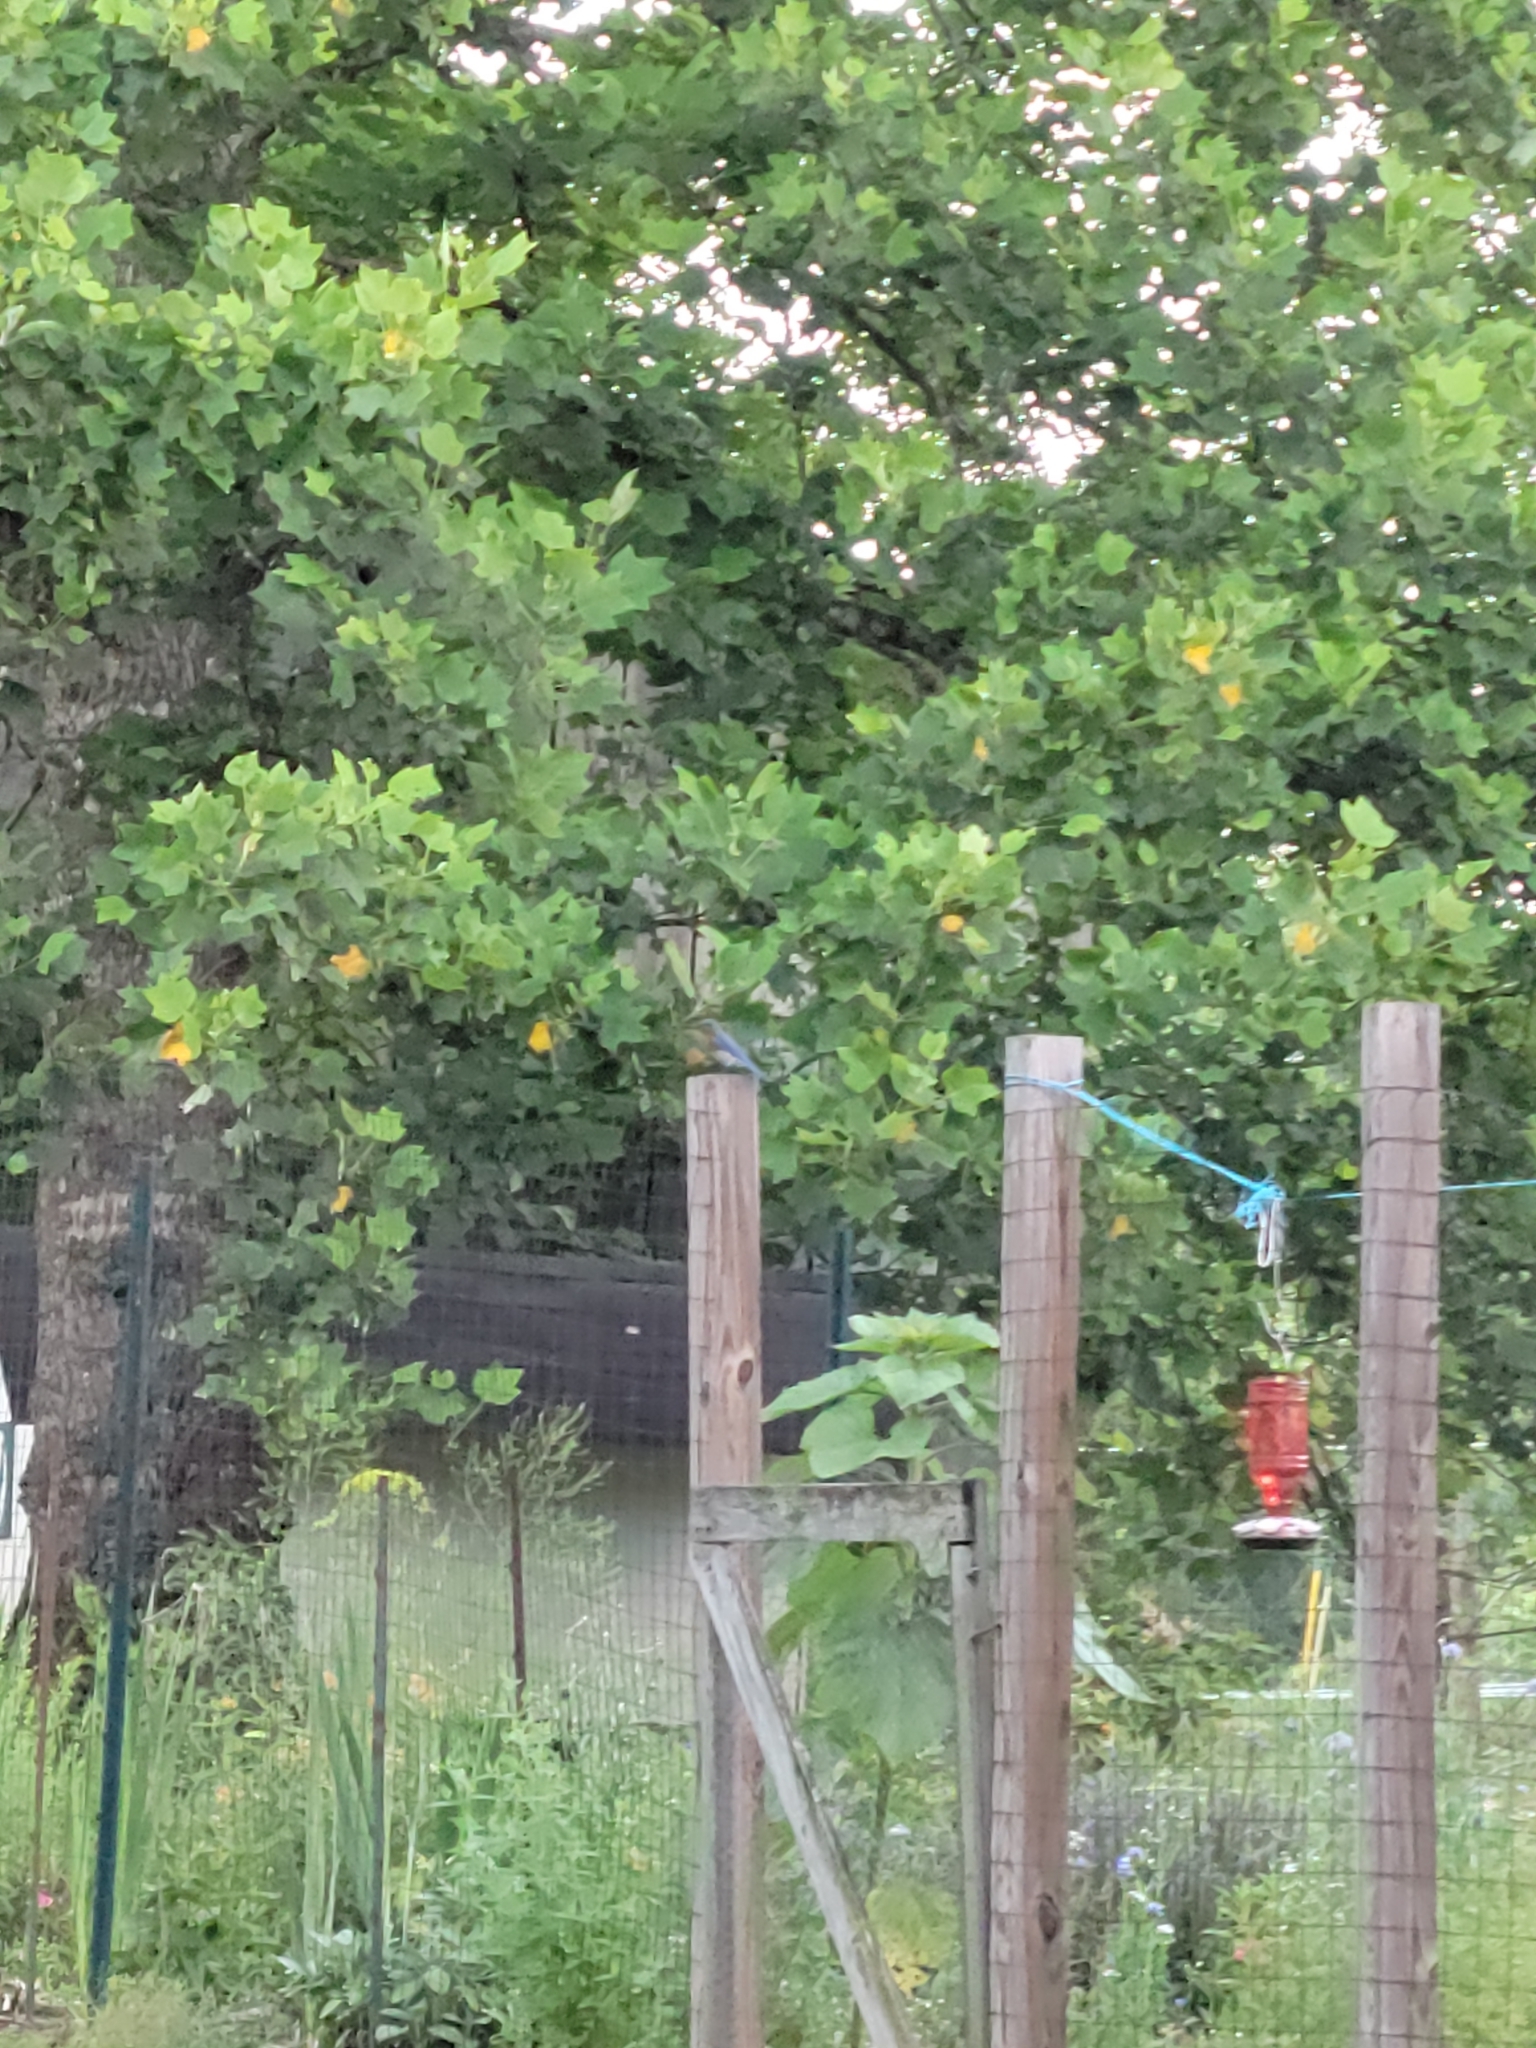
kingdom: Animalia
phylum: Chordata
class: Aves
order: Passeriformes
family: Turdidae
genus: Sialia
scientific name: Sialia sialis
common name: Eastern bluebird
